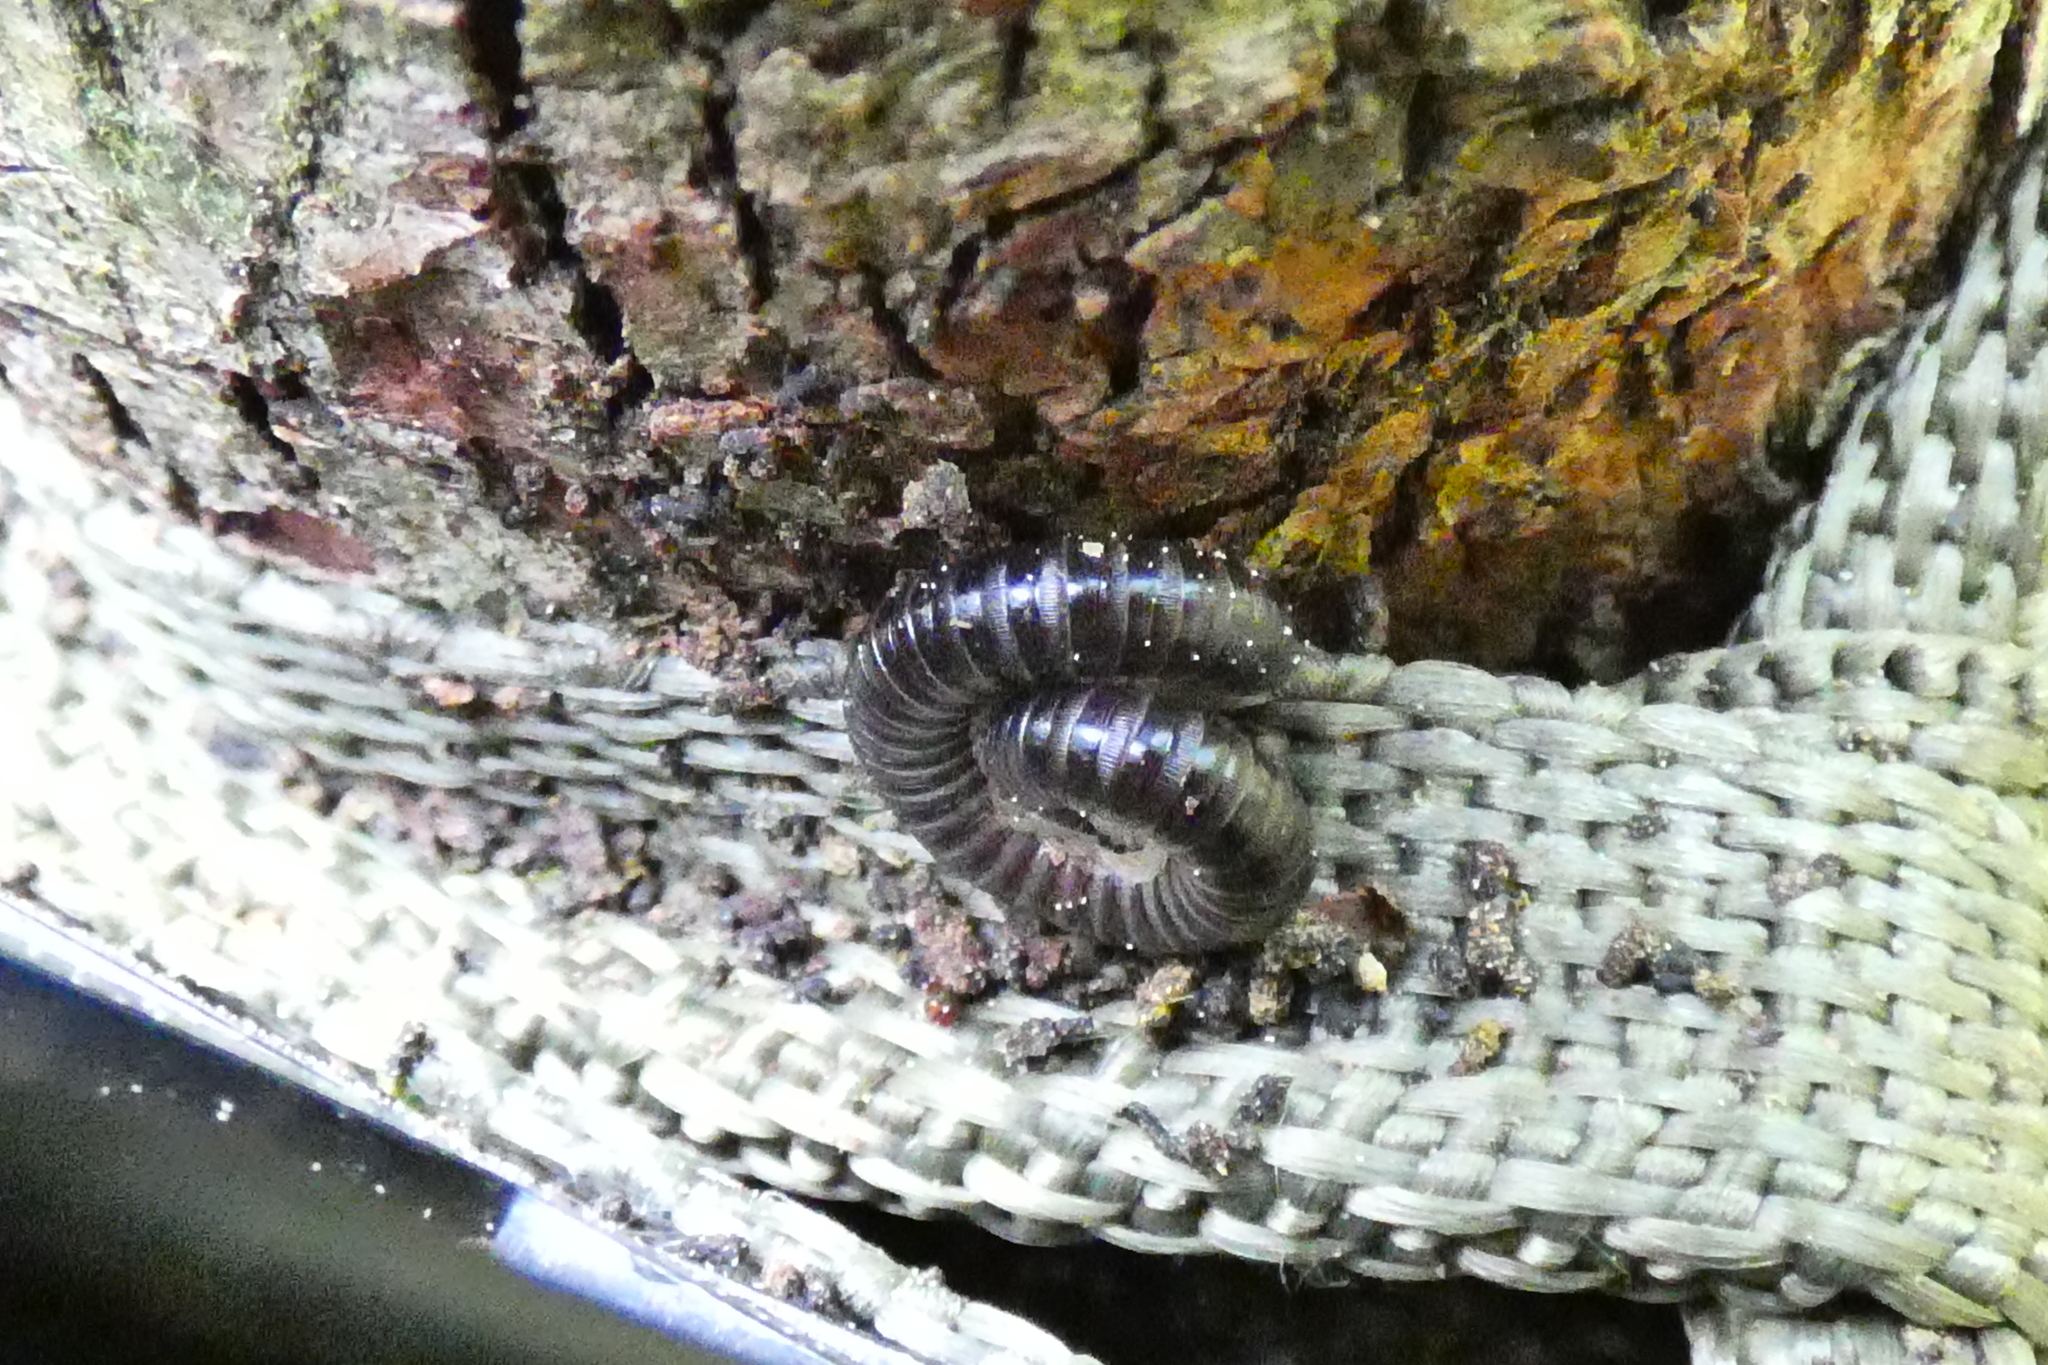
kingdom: Animalia
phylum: Arthropoda
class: Diplopoda
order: Julida
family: Julidae
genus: Tachypodoiulus
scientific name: Tachypodoiulus niger
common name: White-legged snake millipede
